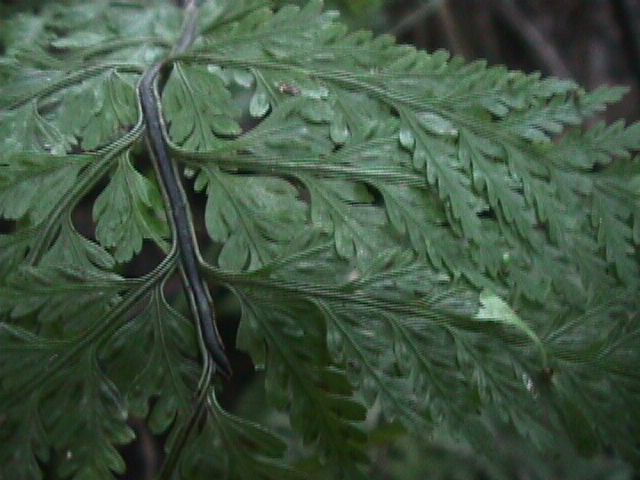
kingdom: Plantae
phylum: Tracheophyta
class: Polypodiopsida
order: Polypodiales
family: Aspleniaceae
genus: Asplenium
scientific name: Asplenium bulbiferum
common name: Mother fern
